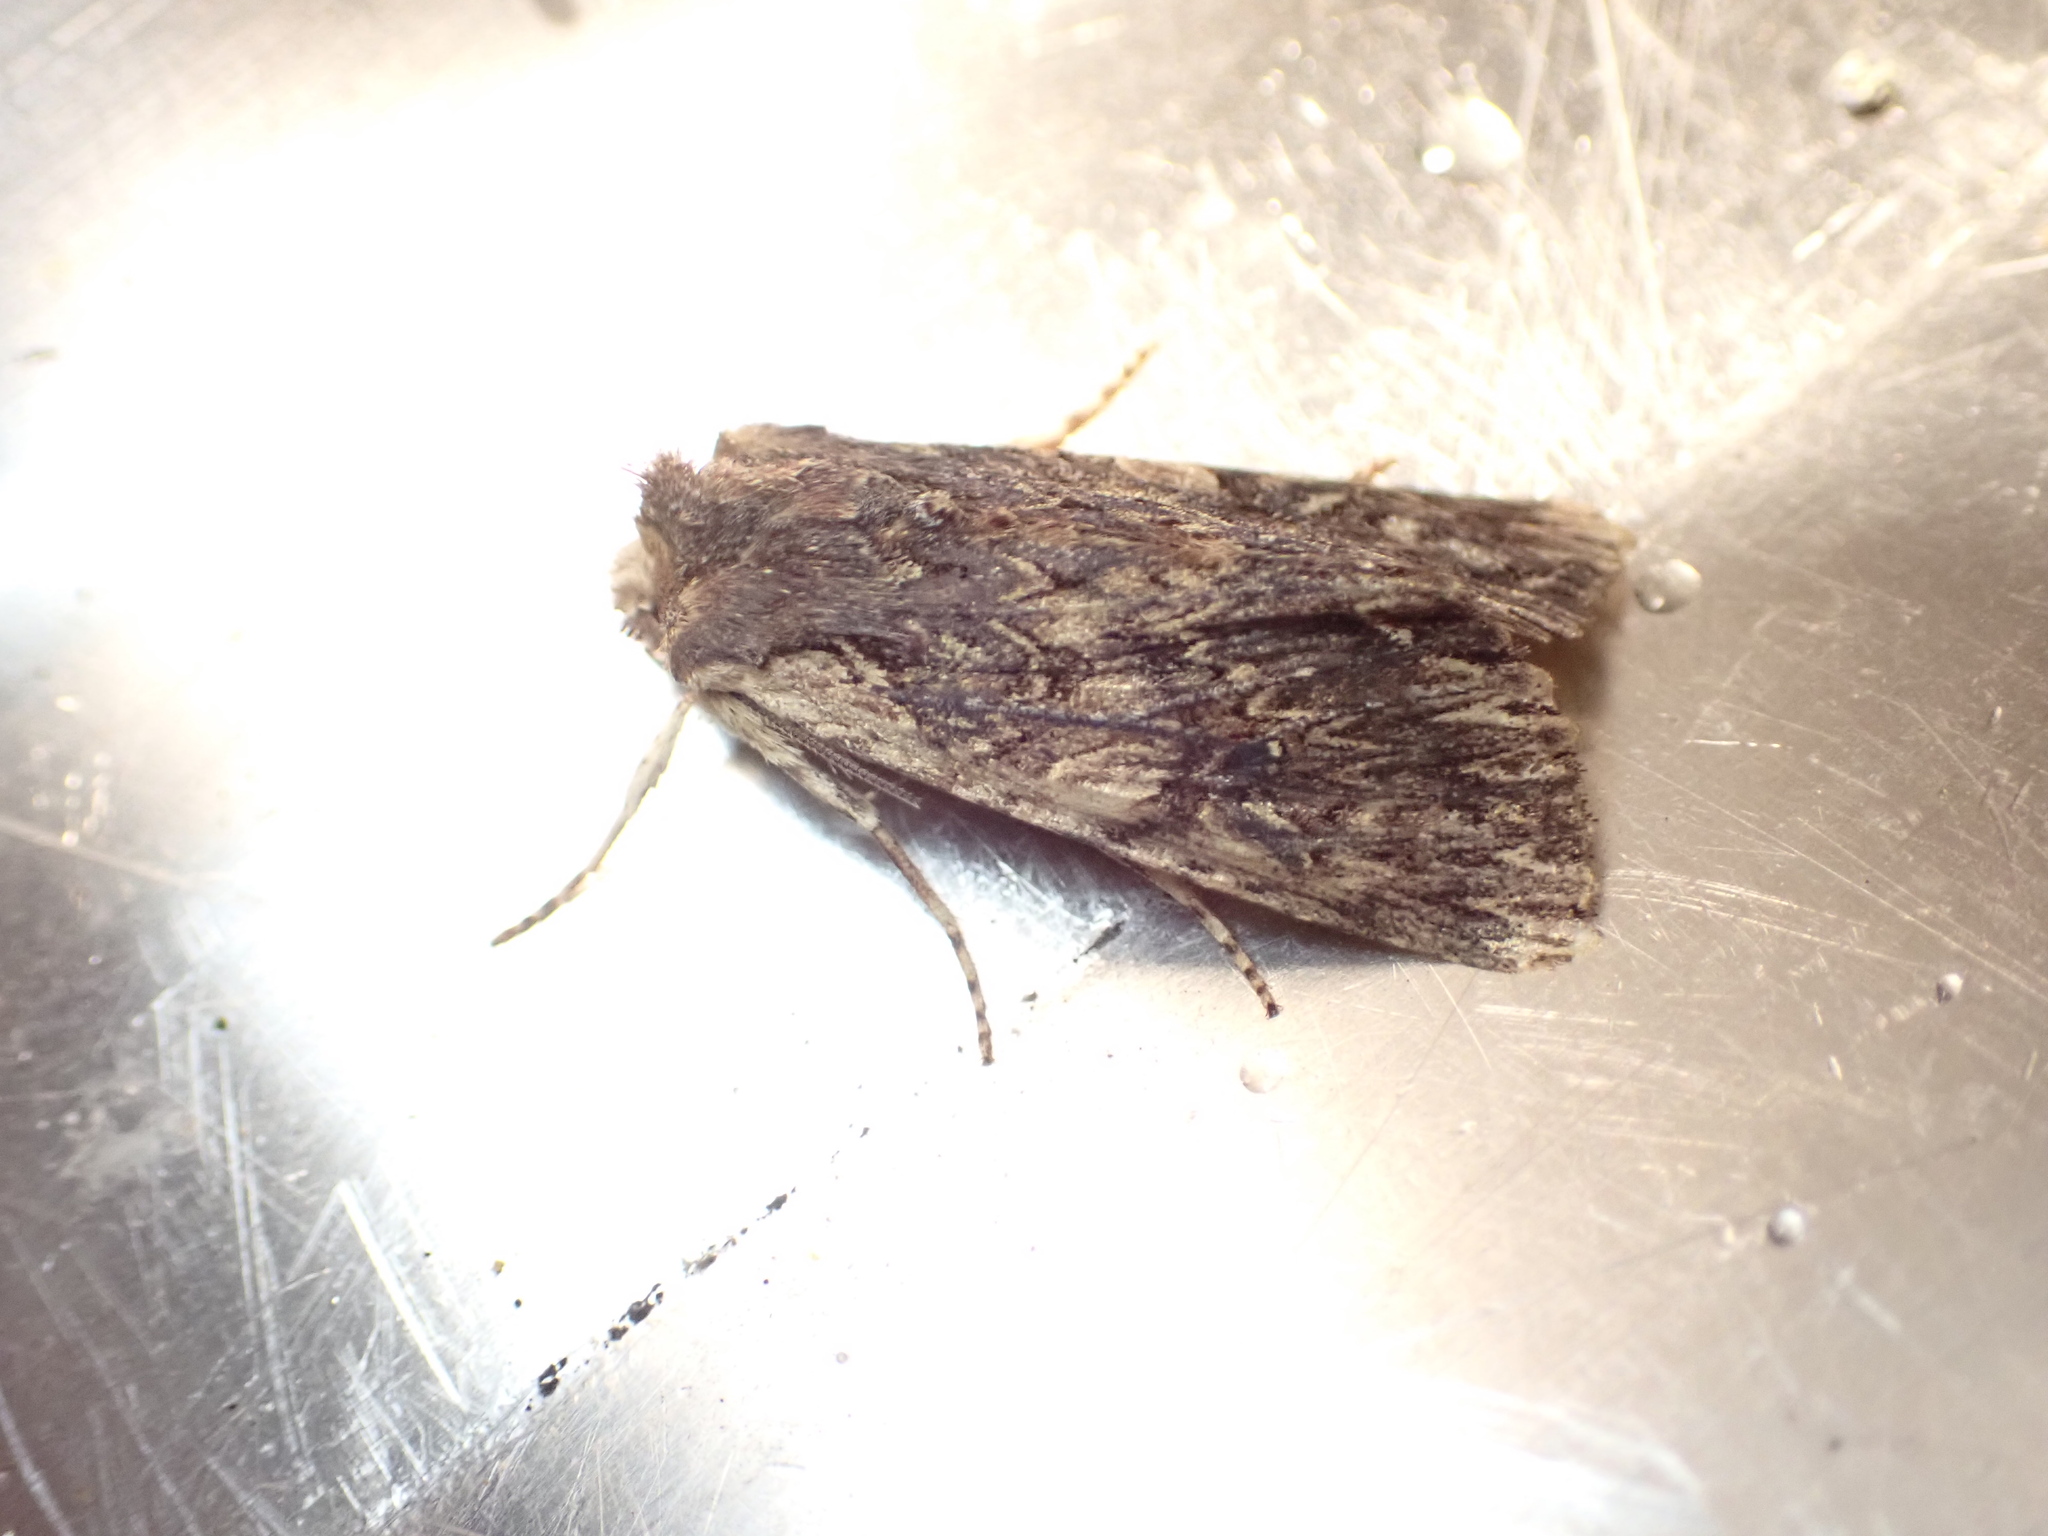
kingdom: Animalia
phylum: Arthropoda
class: Insecta
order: Lepidoptera
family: Noctuidae
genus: Meterana
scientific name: Meterana alcyone
